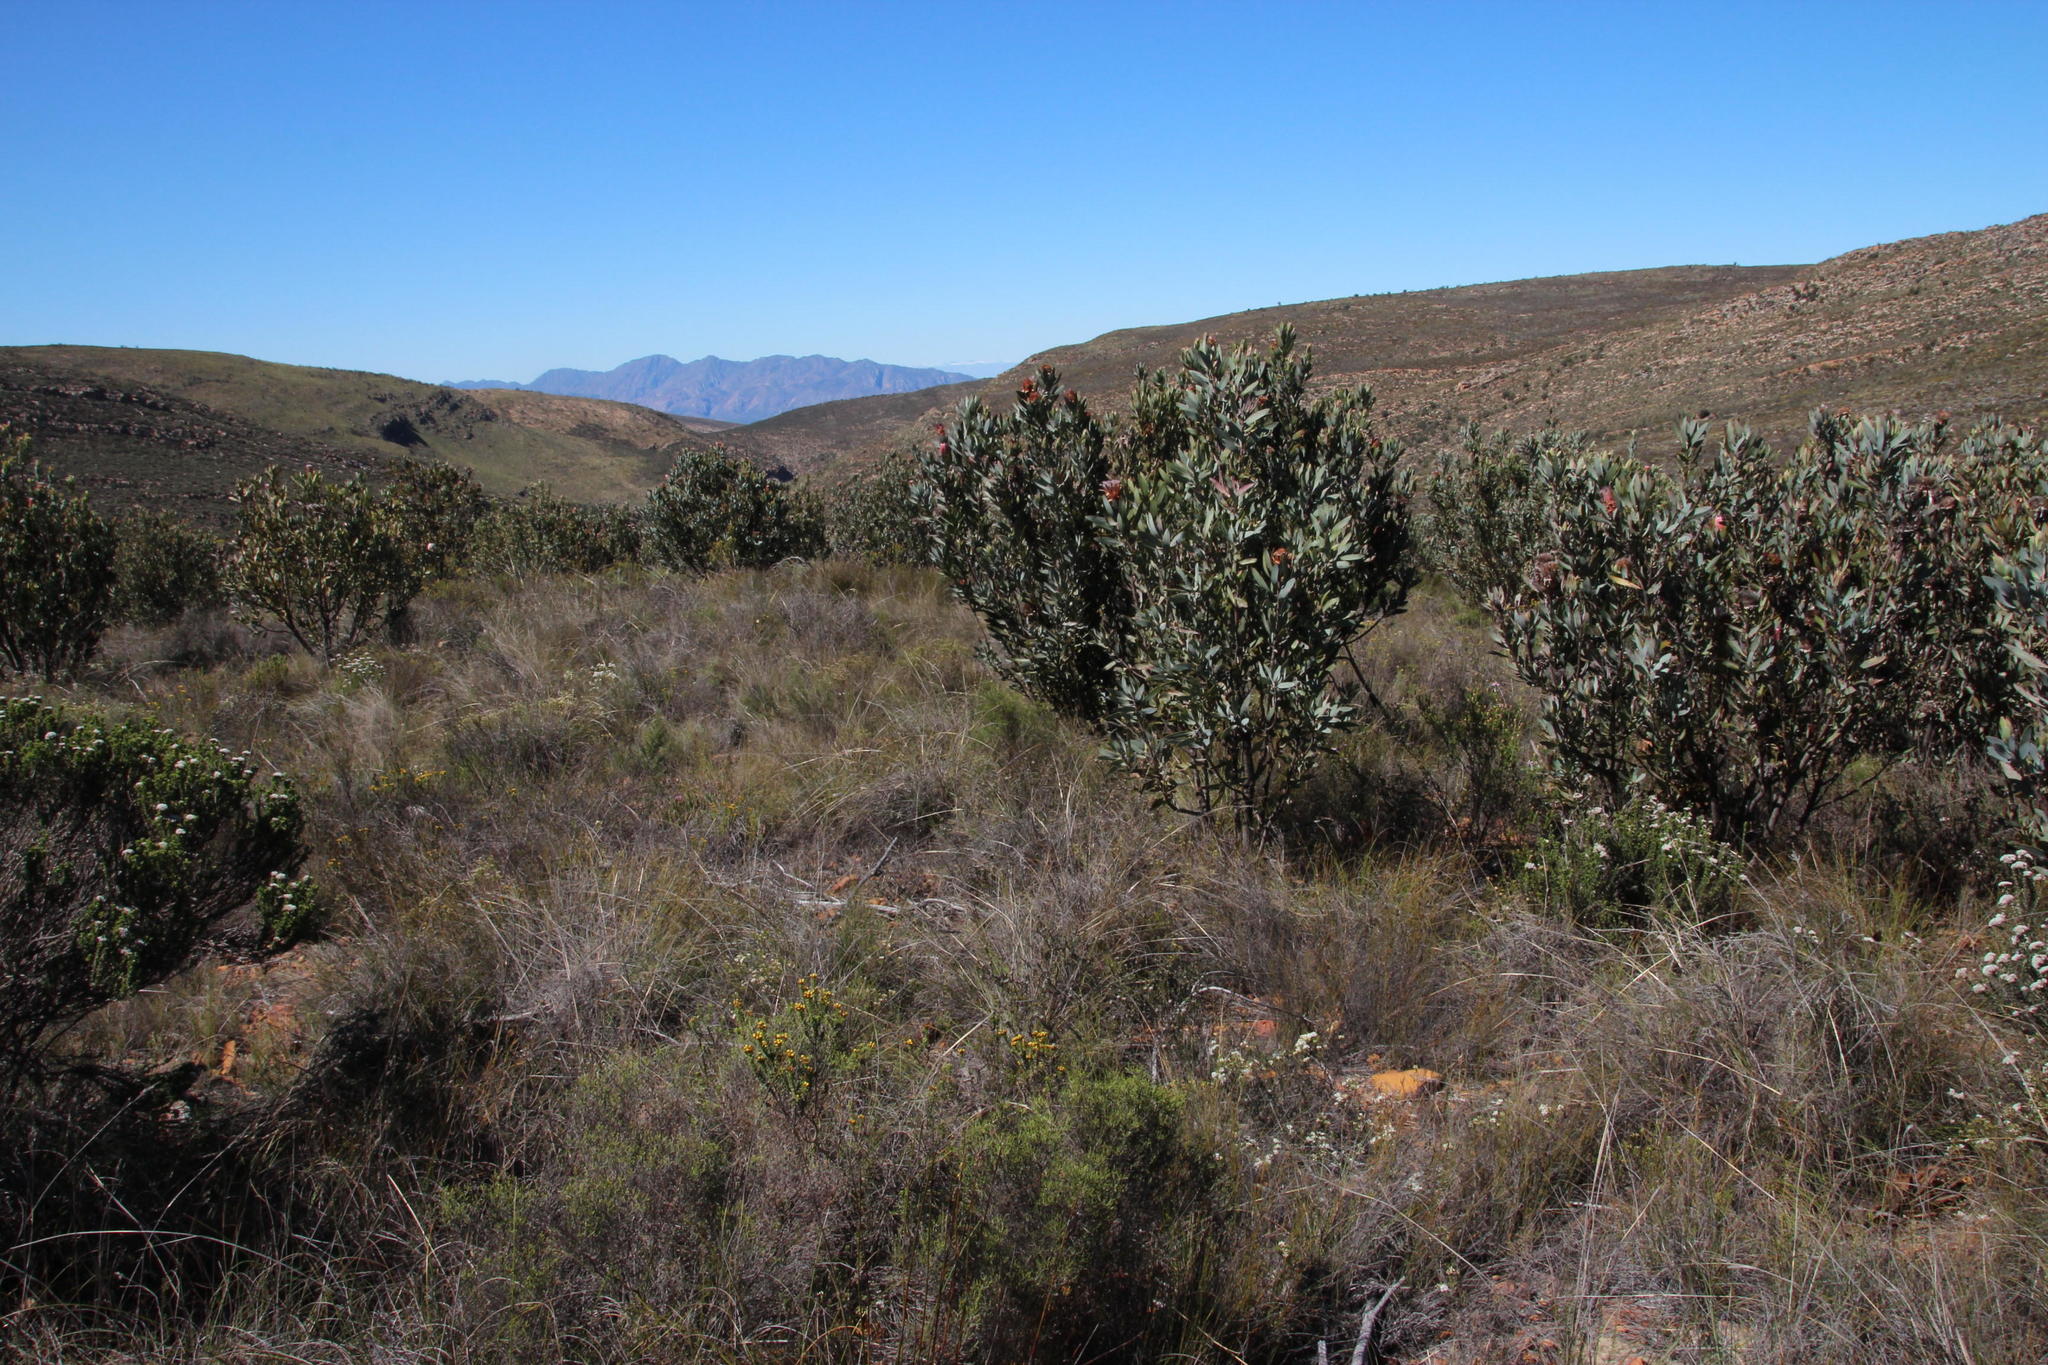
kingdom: Plantae
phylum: Tracheophyta
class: Magnoliopsida
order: Proteales
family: Proteaceae
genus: Protea
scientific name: Protea laurifolia
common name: Grey-leaf sugarbsh
